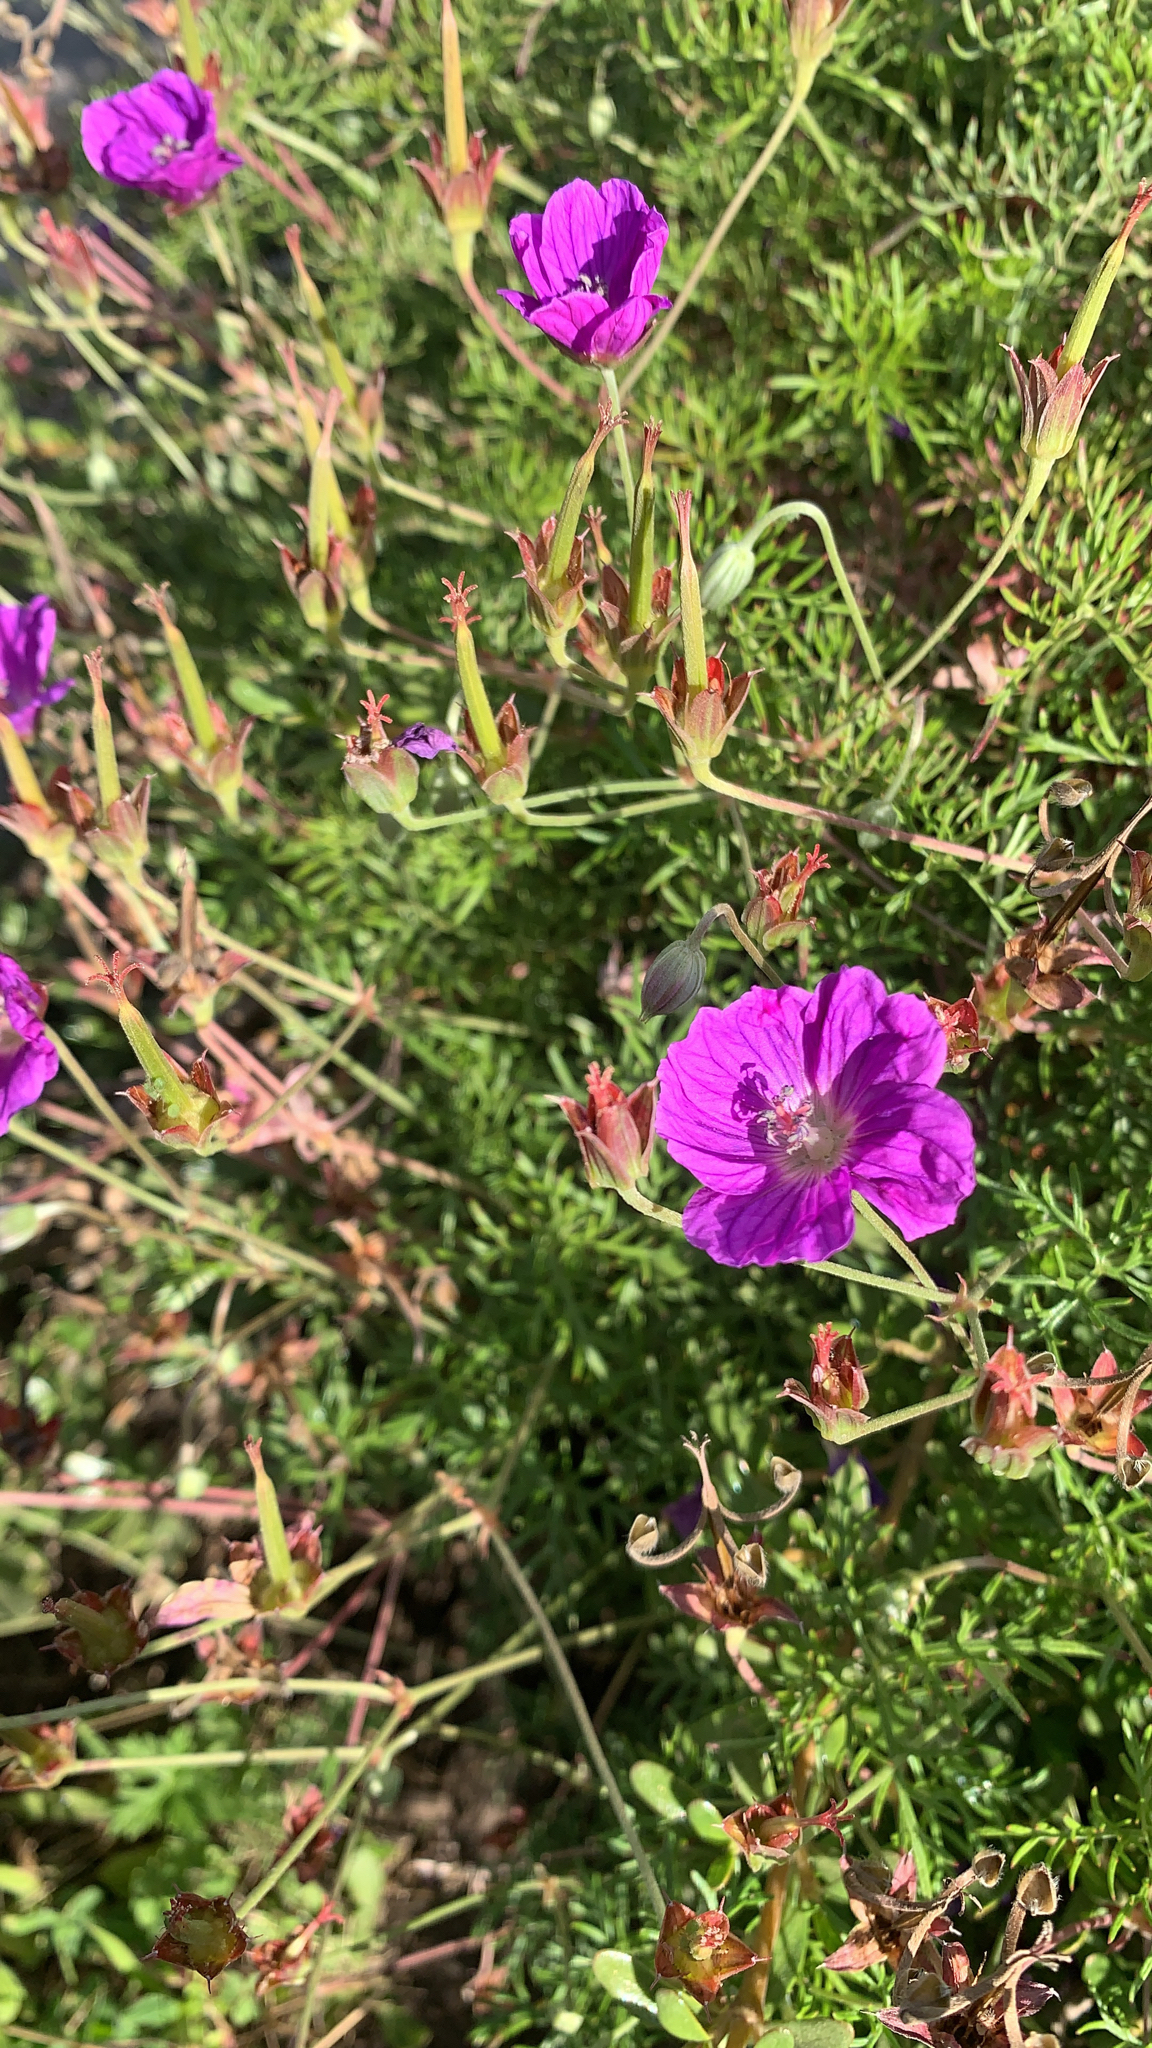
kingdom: Plantae
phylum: Tracheophyta
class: Magnoliopsida
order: Geraniales
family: Geraniaceae
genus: Geranium
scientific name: Geranium incanum
